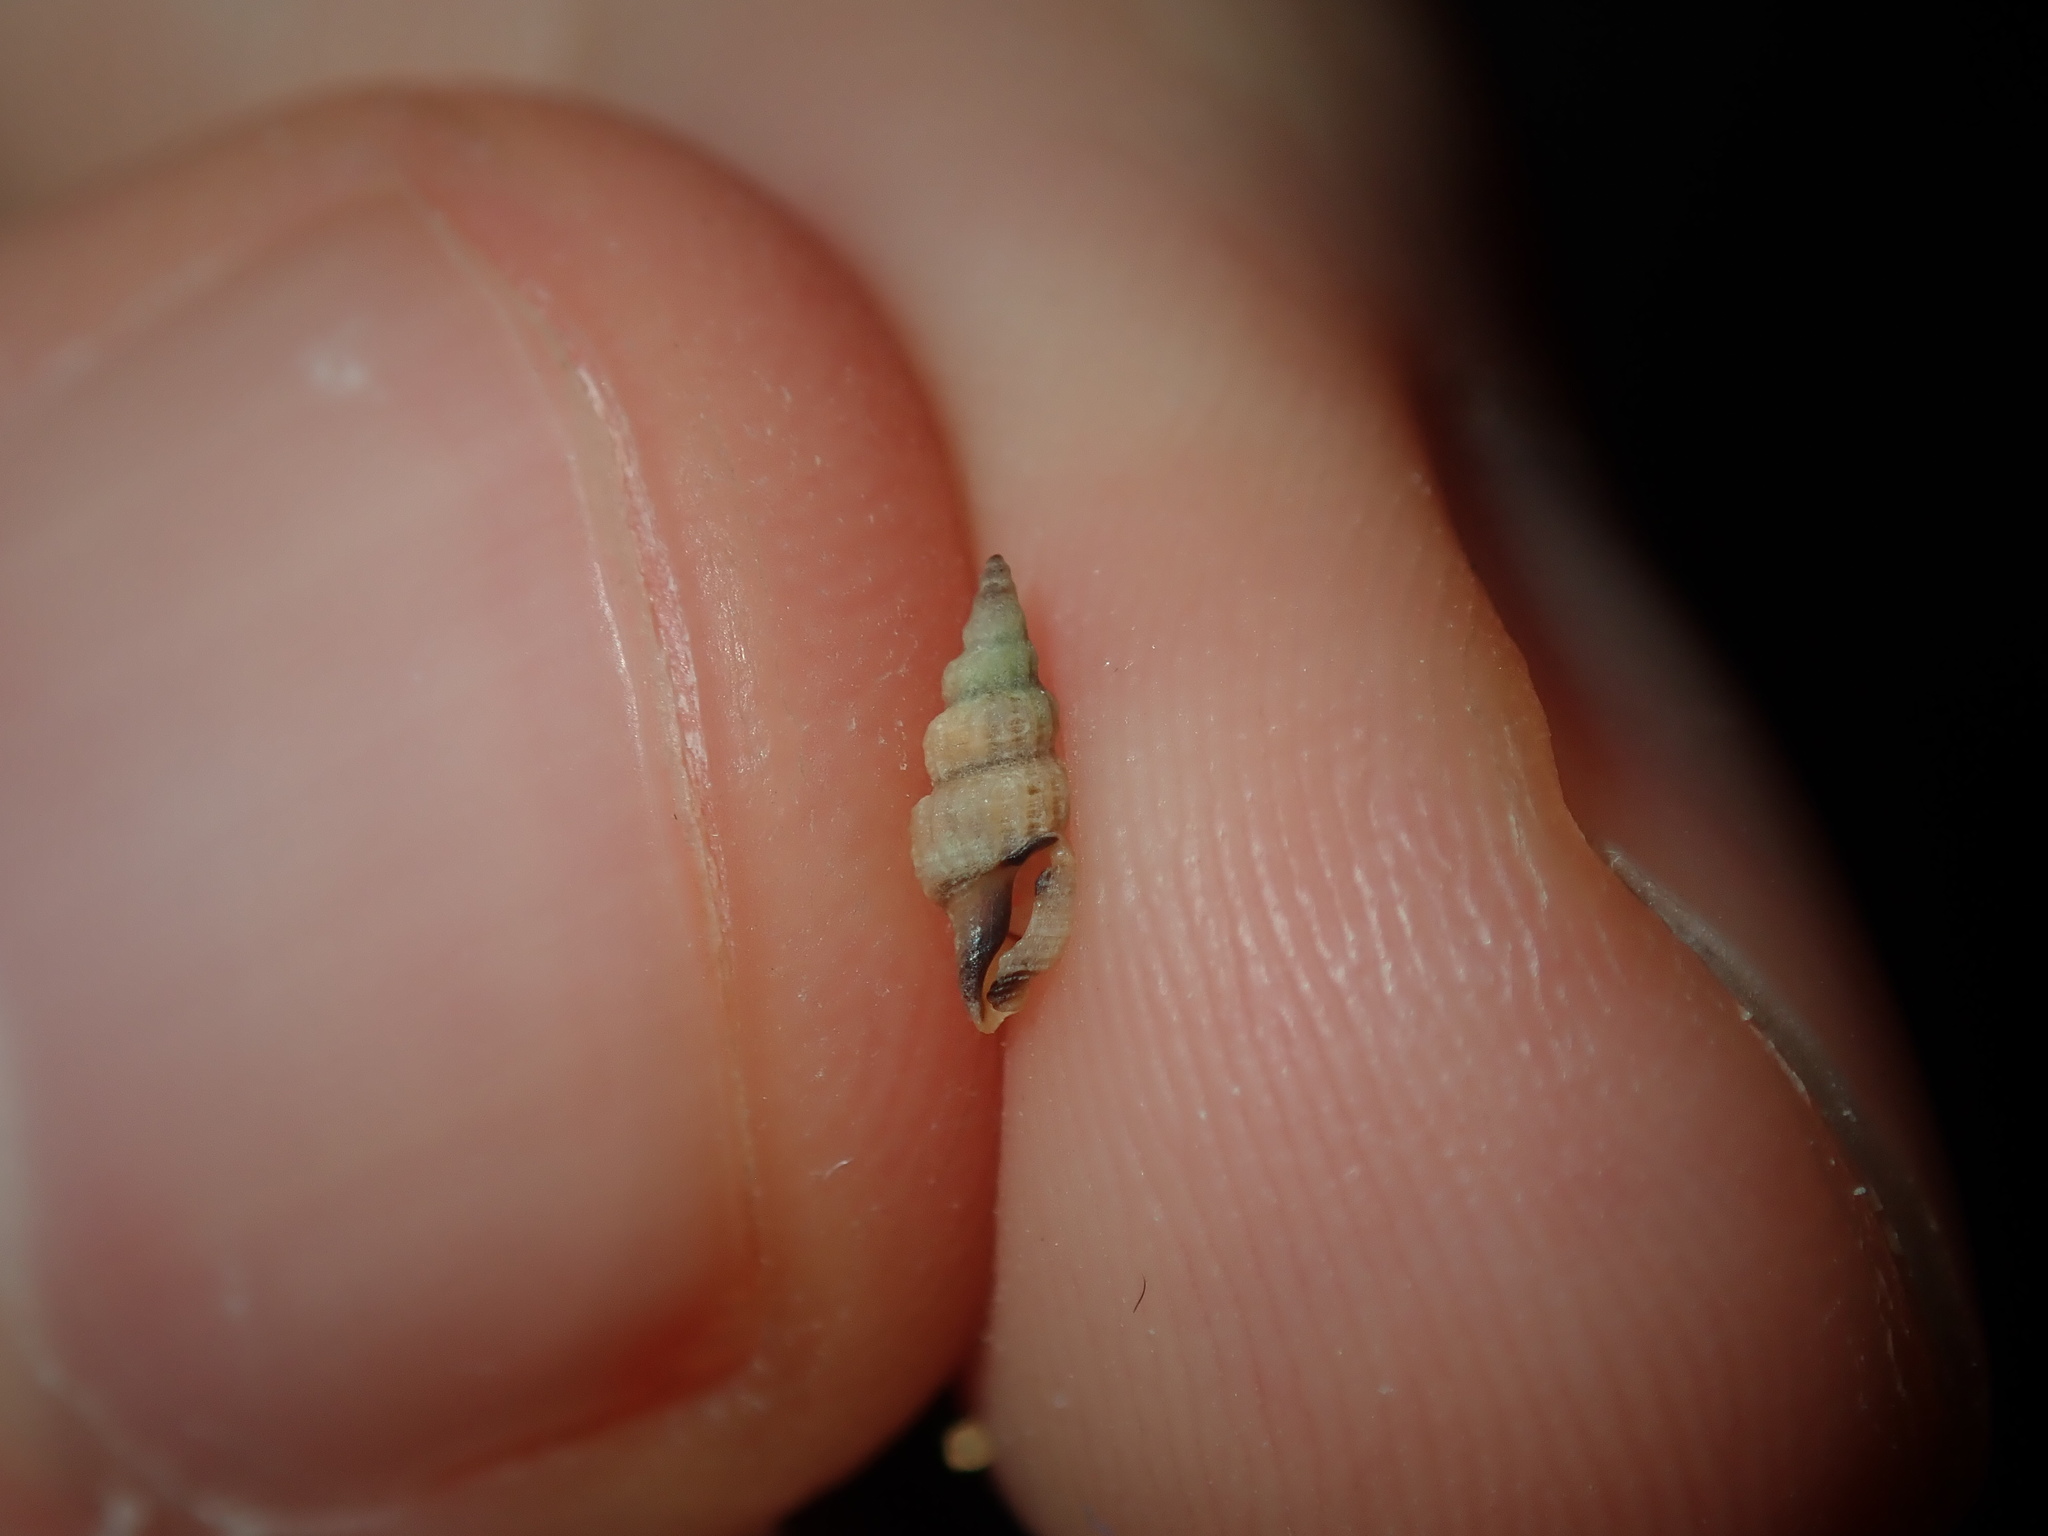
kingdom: Animalia
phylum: Mollusca
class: Gastropoda
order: Neogastropoda
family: Clathurellidae
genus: Etrema
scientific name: Etrema bicolor
